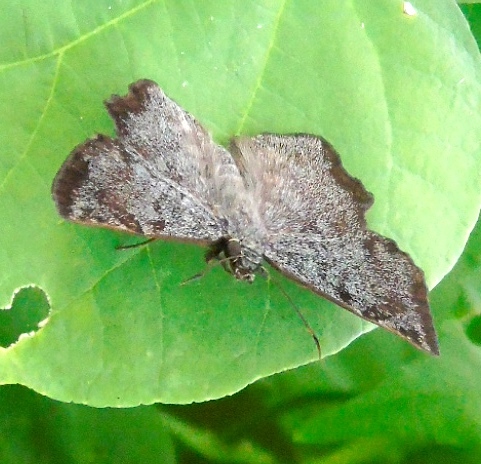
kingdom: Animalia
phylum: Arthropoda
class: Insecta
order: Lepidoptera
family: Hesperiidae
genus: Antigonus
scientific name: Antigonus erosus
